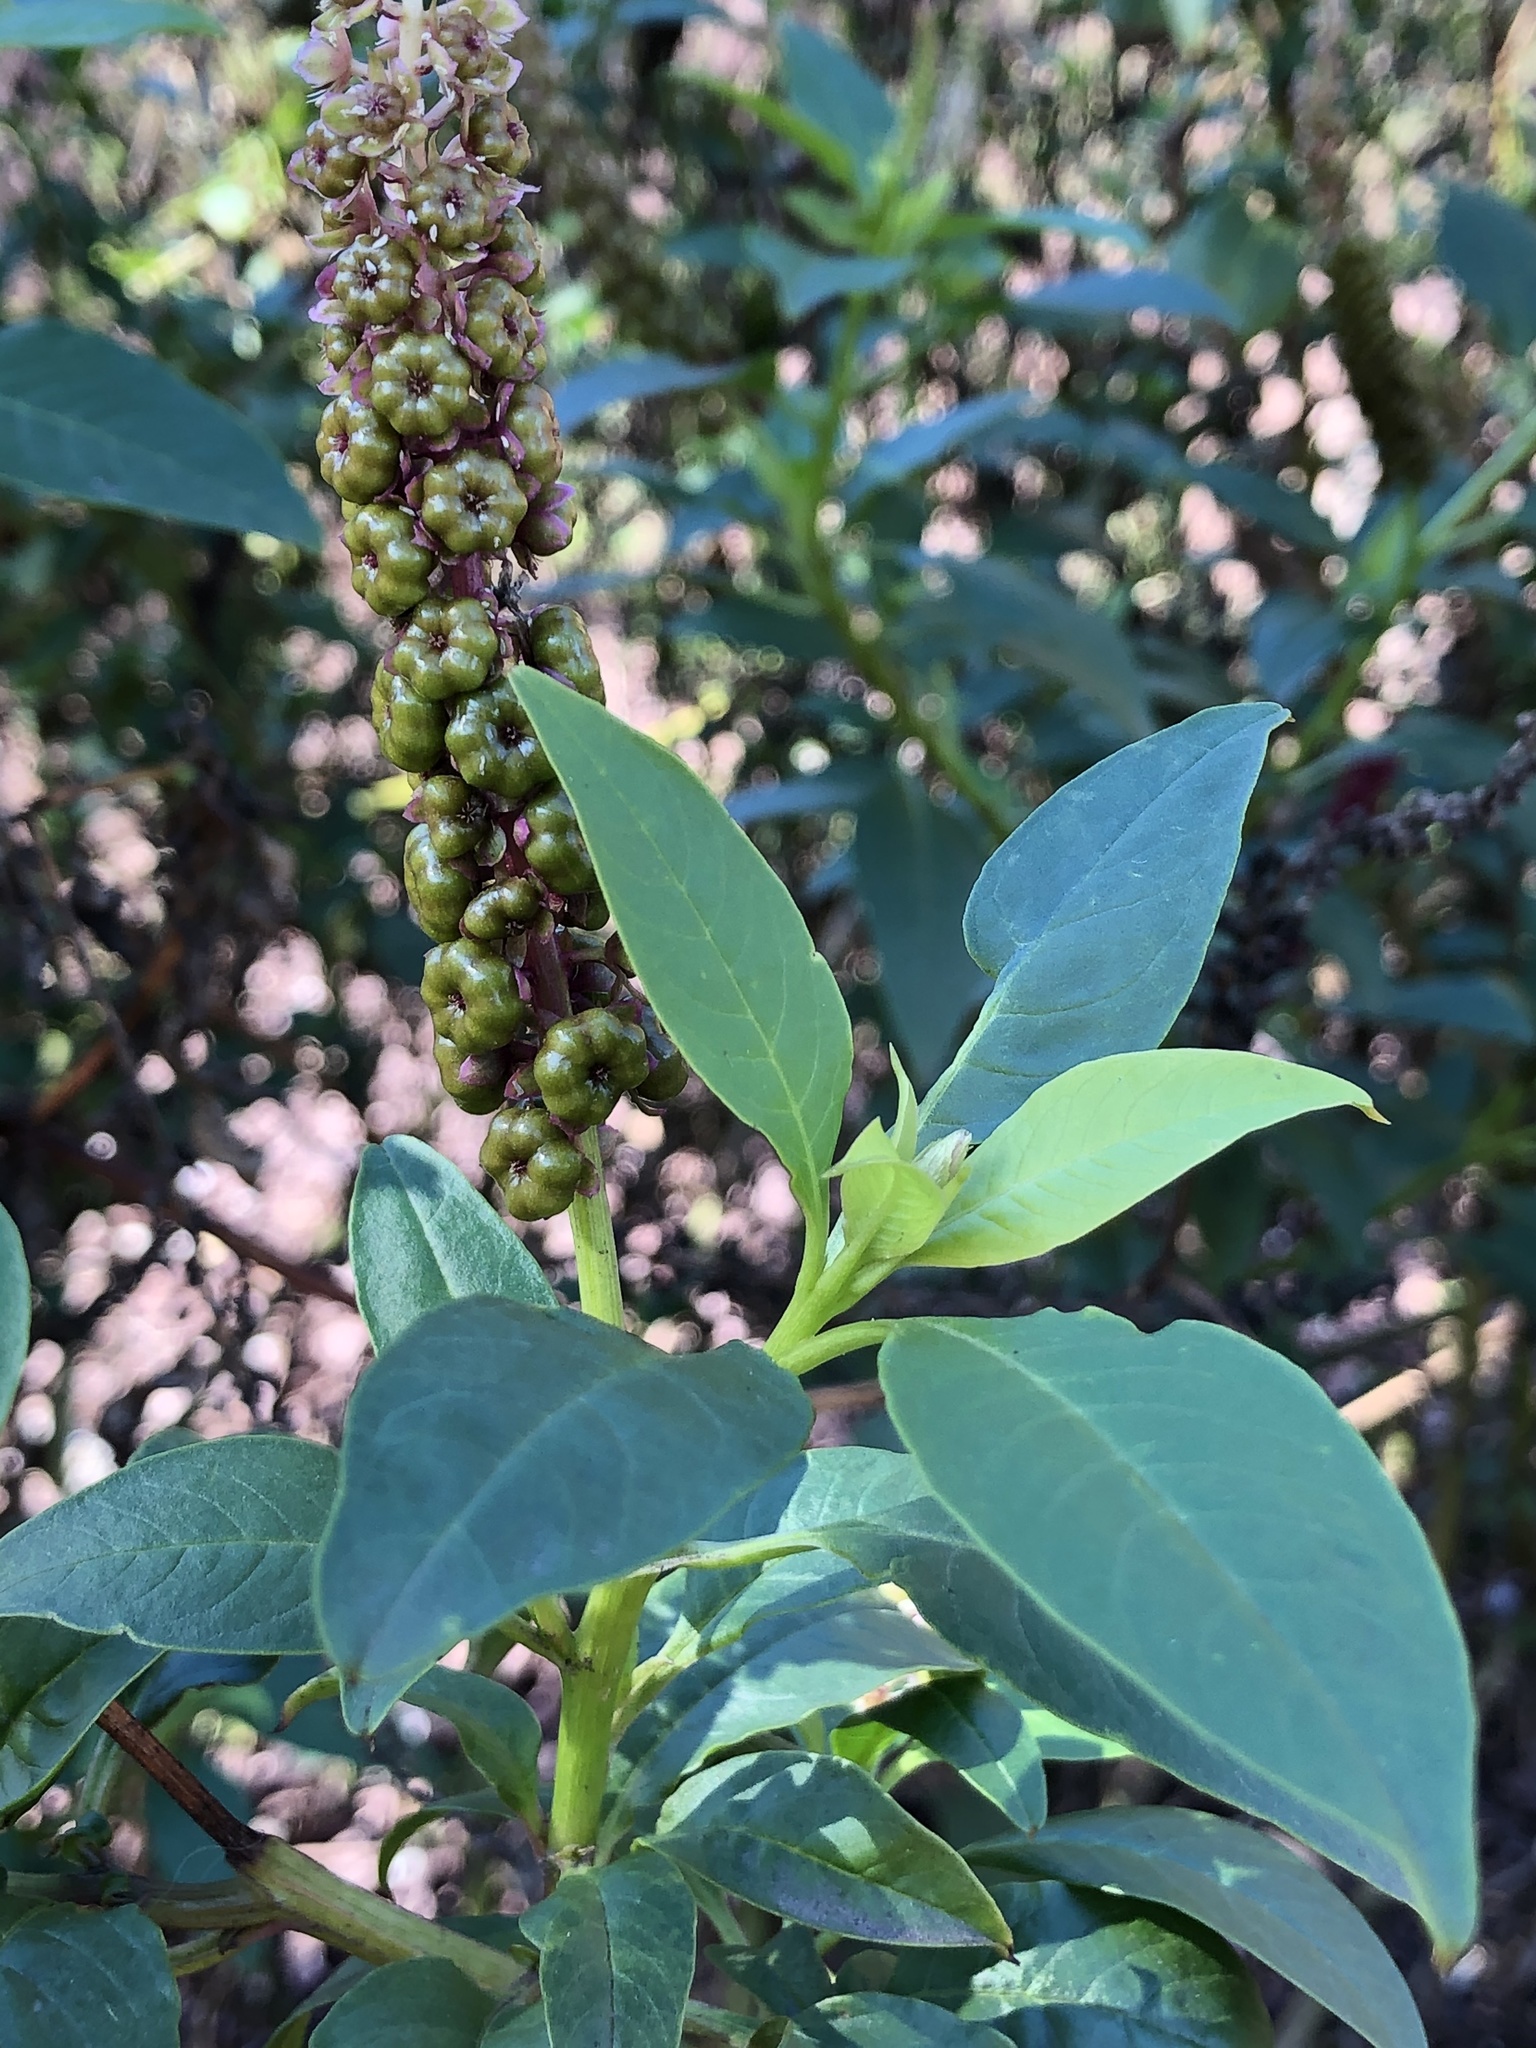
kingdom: Plantae
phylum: Tracheophyta
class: Magnoliopsida
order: Caryophyllales
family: Phytolaccaceae
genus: Phytolacca
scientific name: Phytolacca heterotepala
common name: Mexican pokeweed
